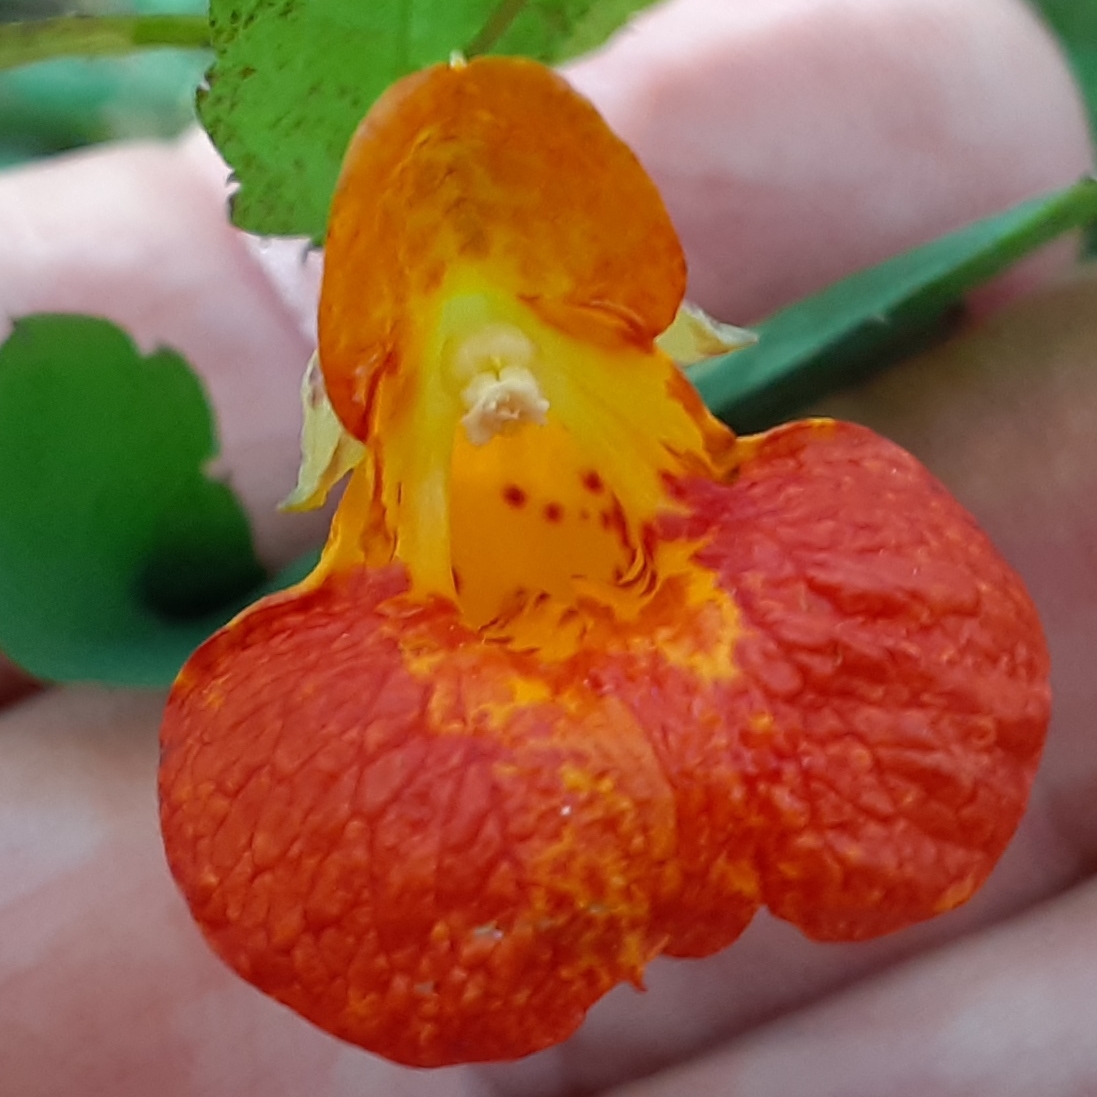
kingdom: Plantae
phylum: Tracheophyta
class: Magnoliopsida
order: Ericales
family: Balsaminaceae
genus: Impatiens
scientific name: Impatiens capensis
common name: Orange balsam
